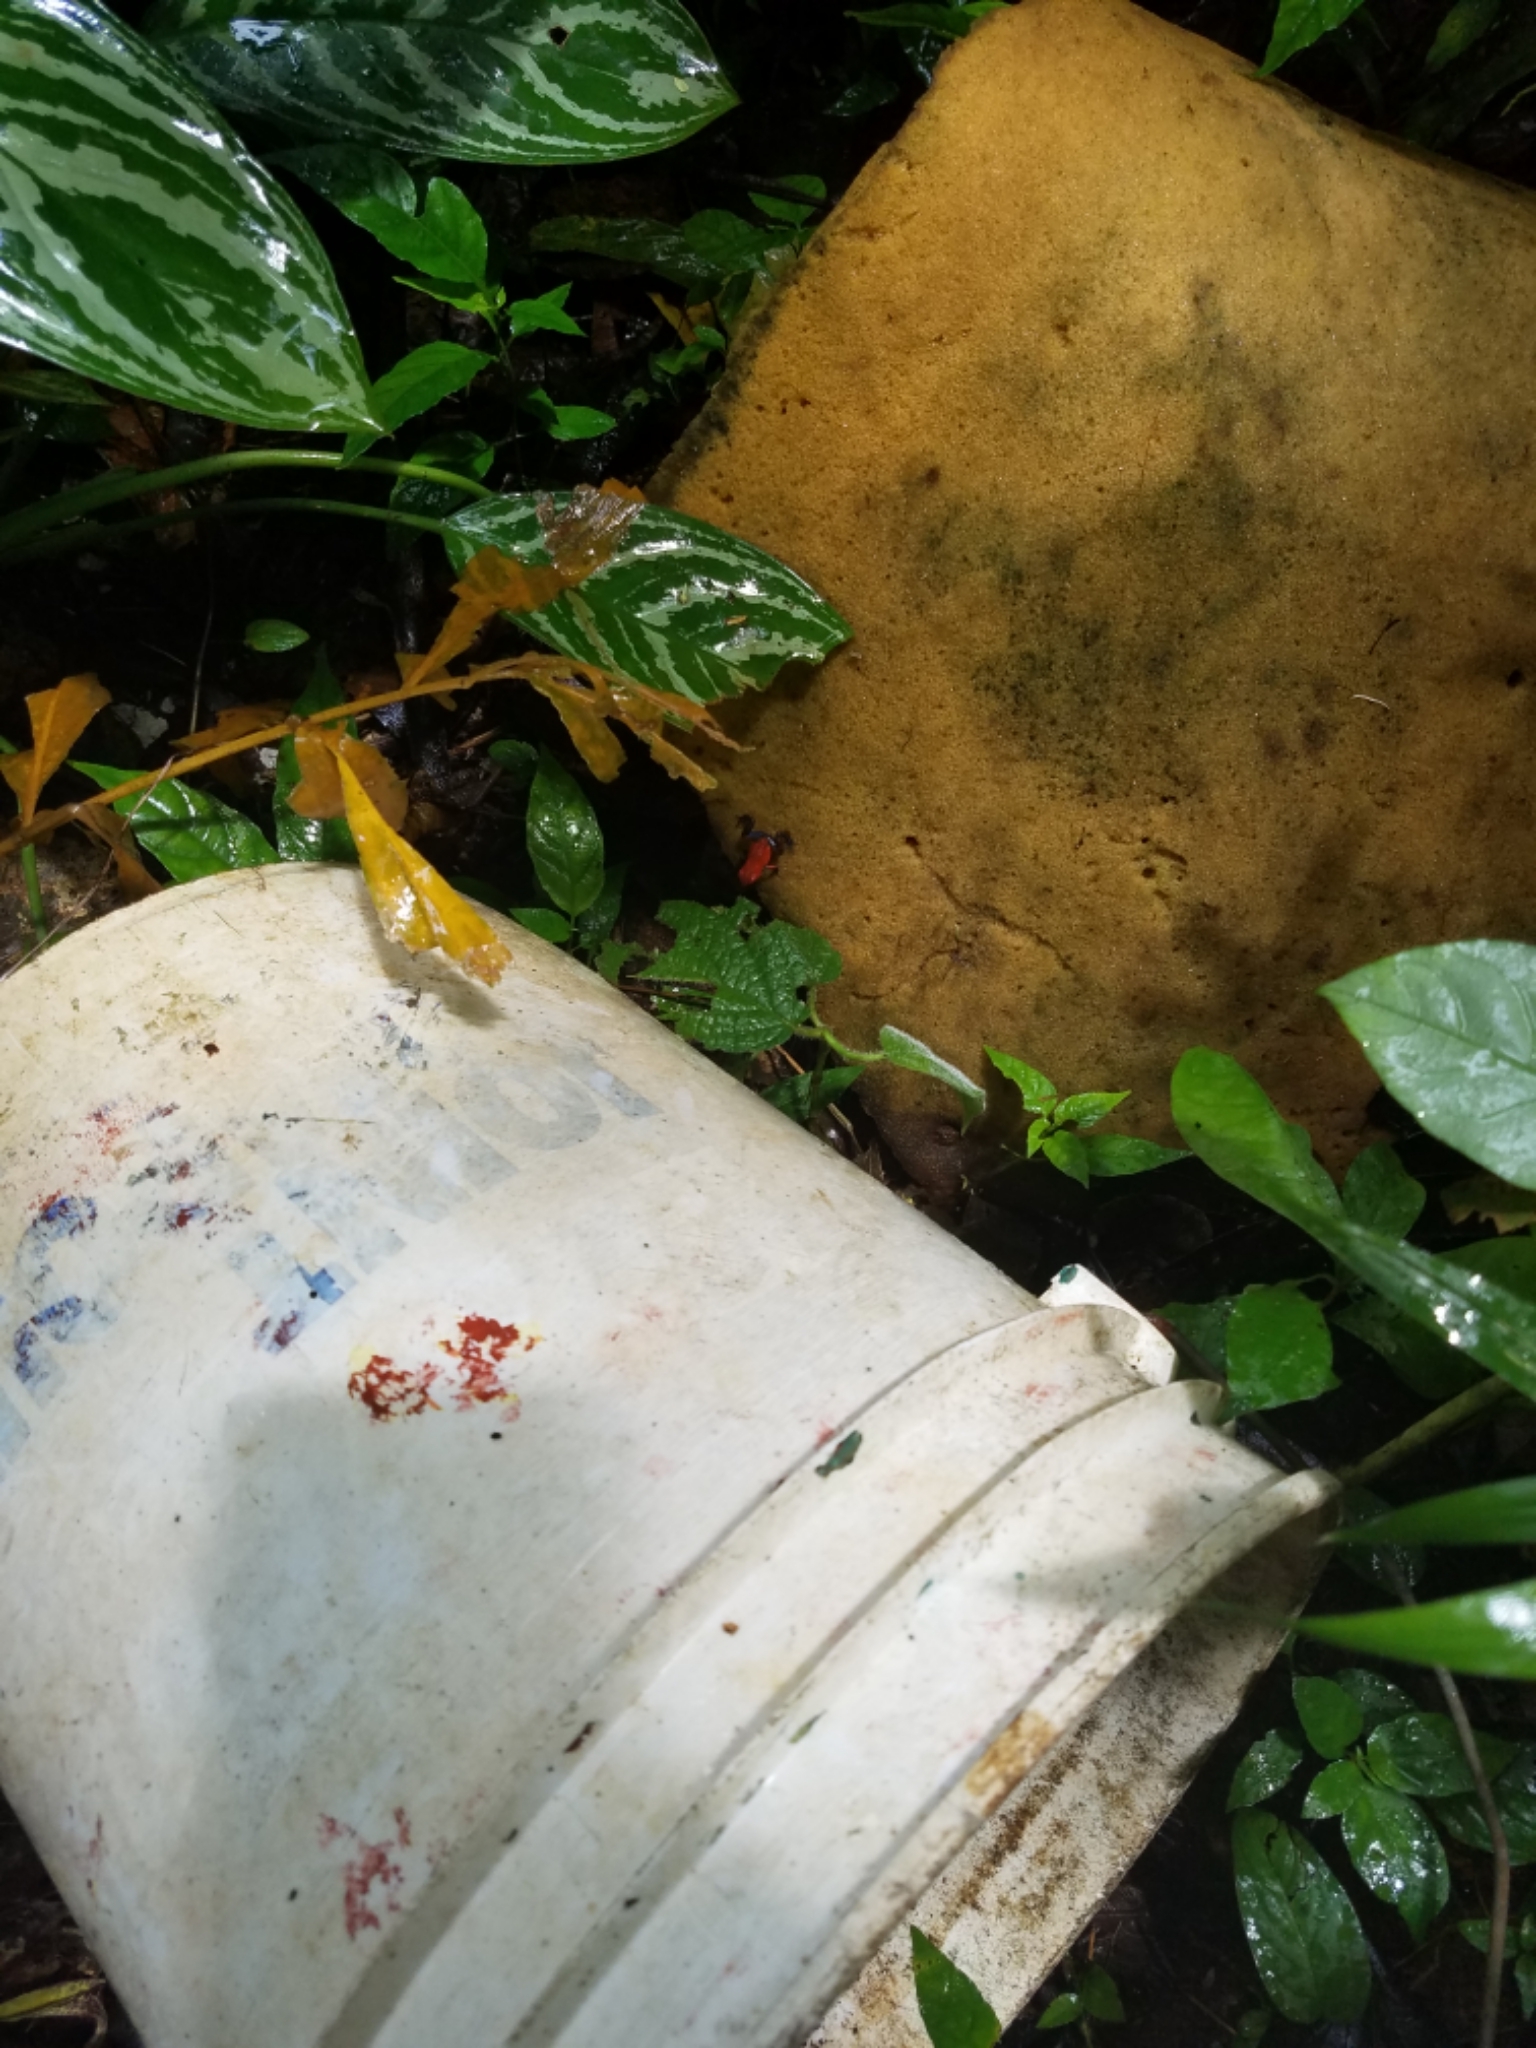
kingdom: Animalia
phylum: Chordata
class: Amphibia
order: Anura
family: Dendrobatidae
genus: Oophaga
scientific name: Oophaga pumilio
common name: Flaming poison frog
